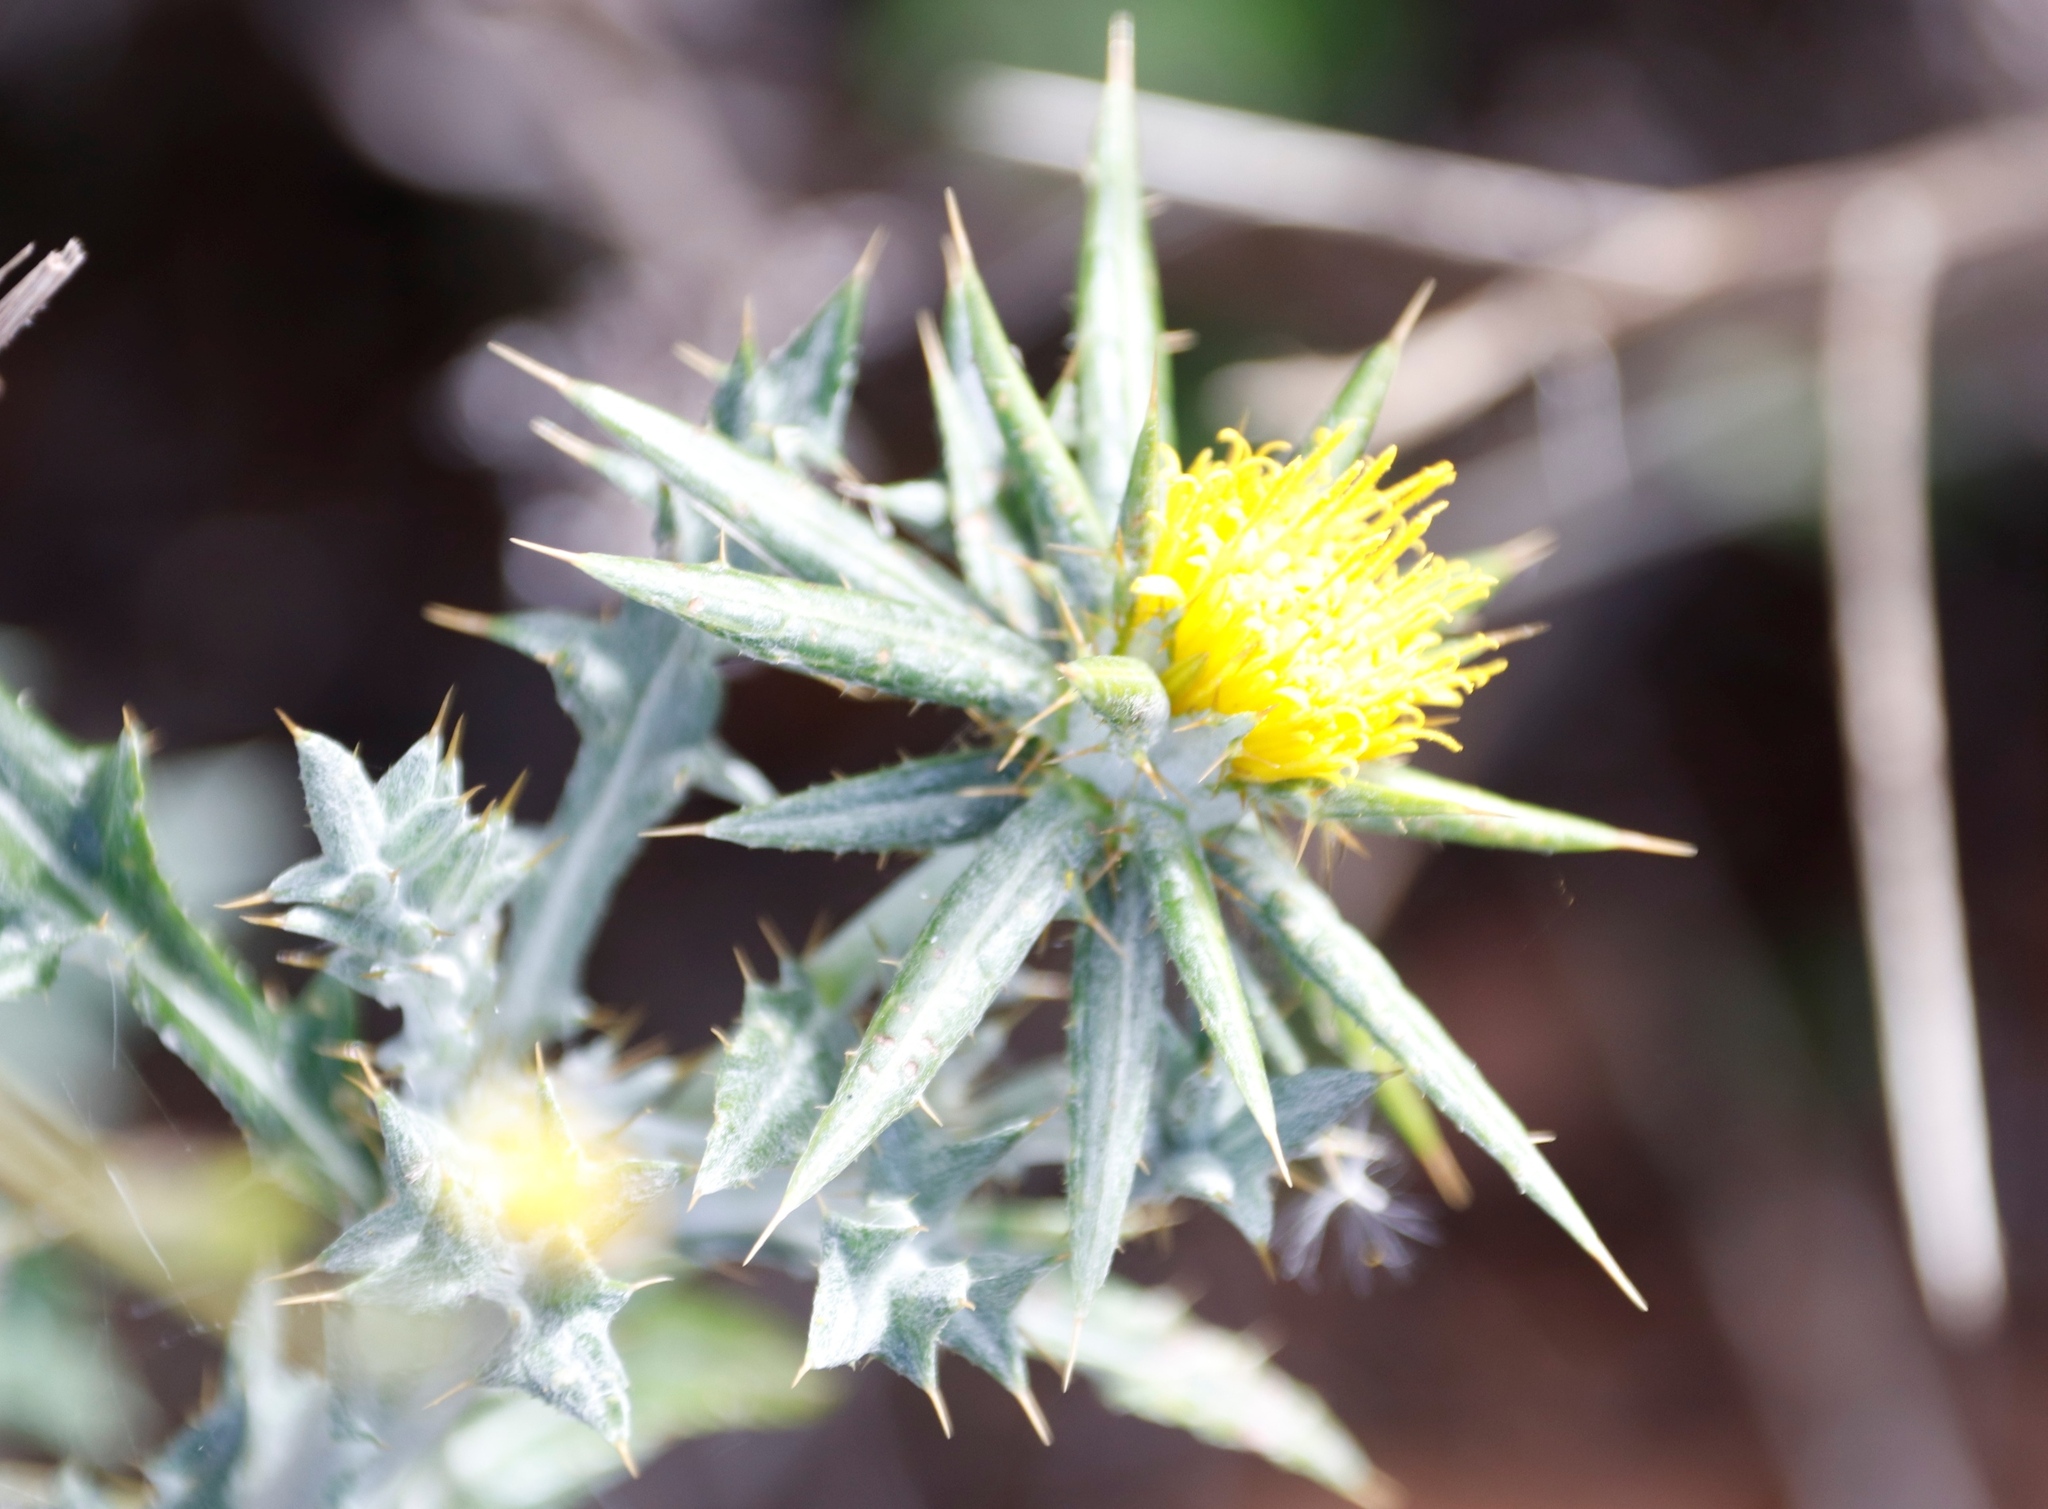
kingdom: Plantae
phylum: Tracheophyta
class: Magnoliopsida
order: Asterales
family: Asteraceae
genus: Berkheya
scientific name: Berkheya rigida
